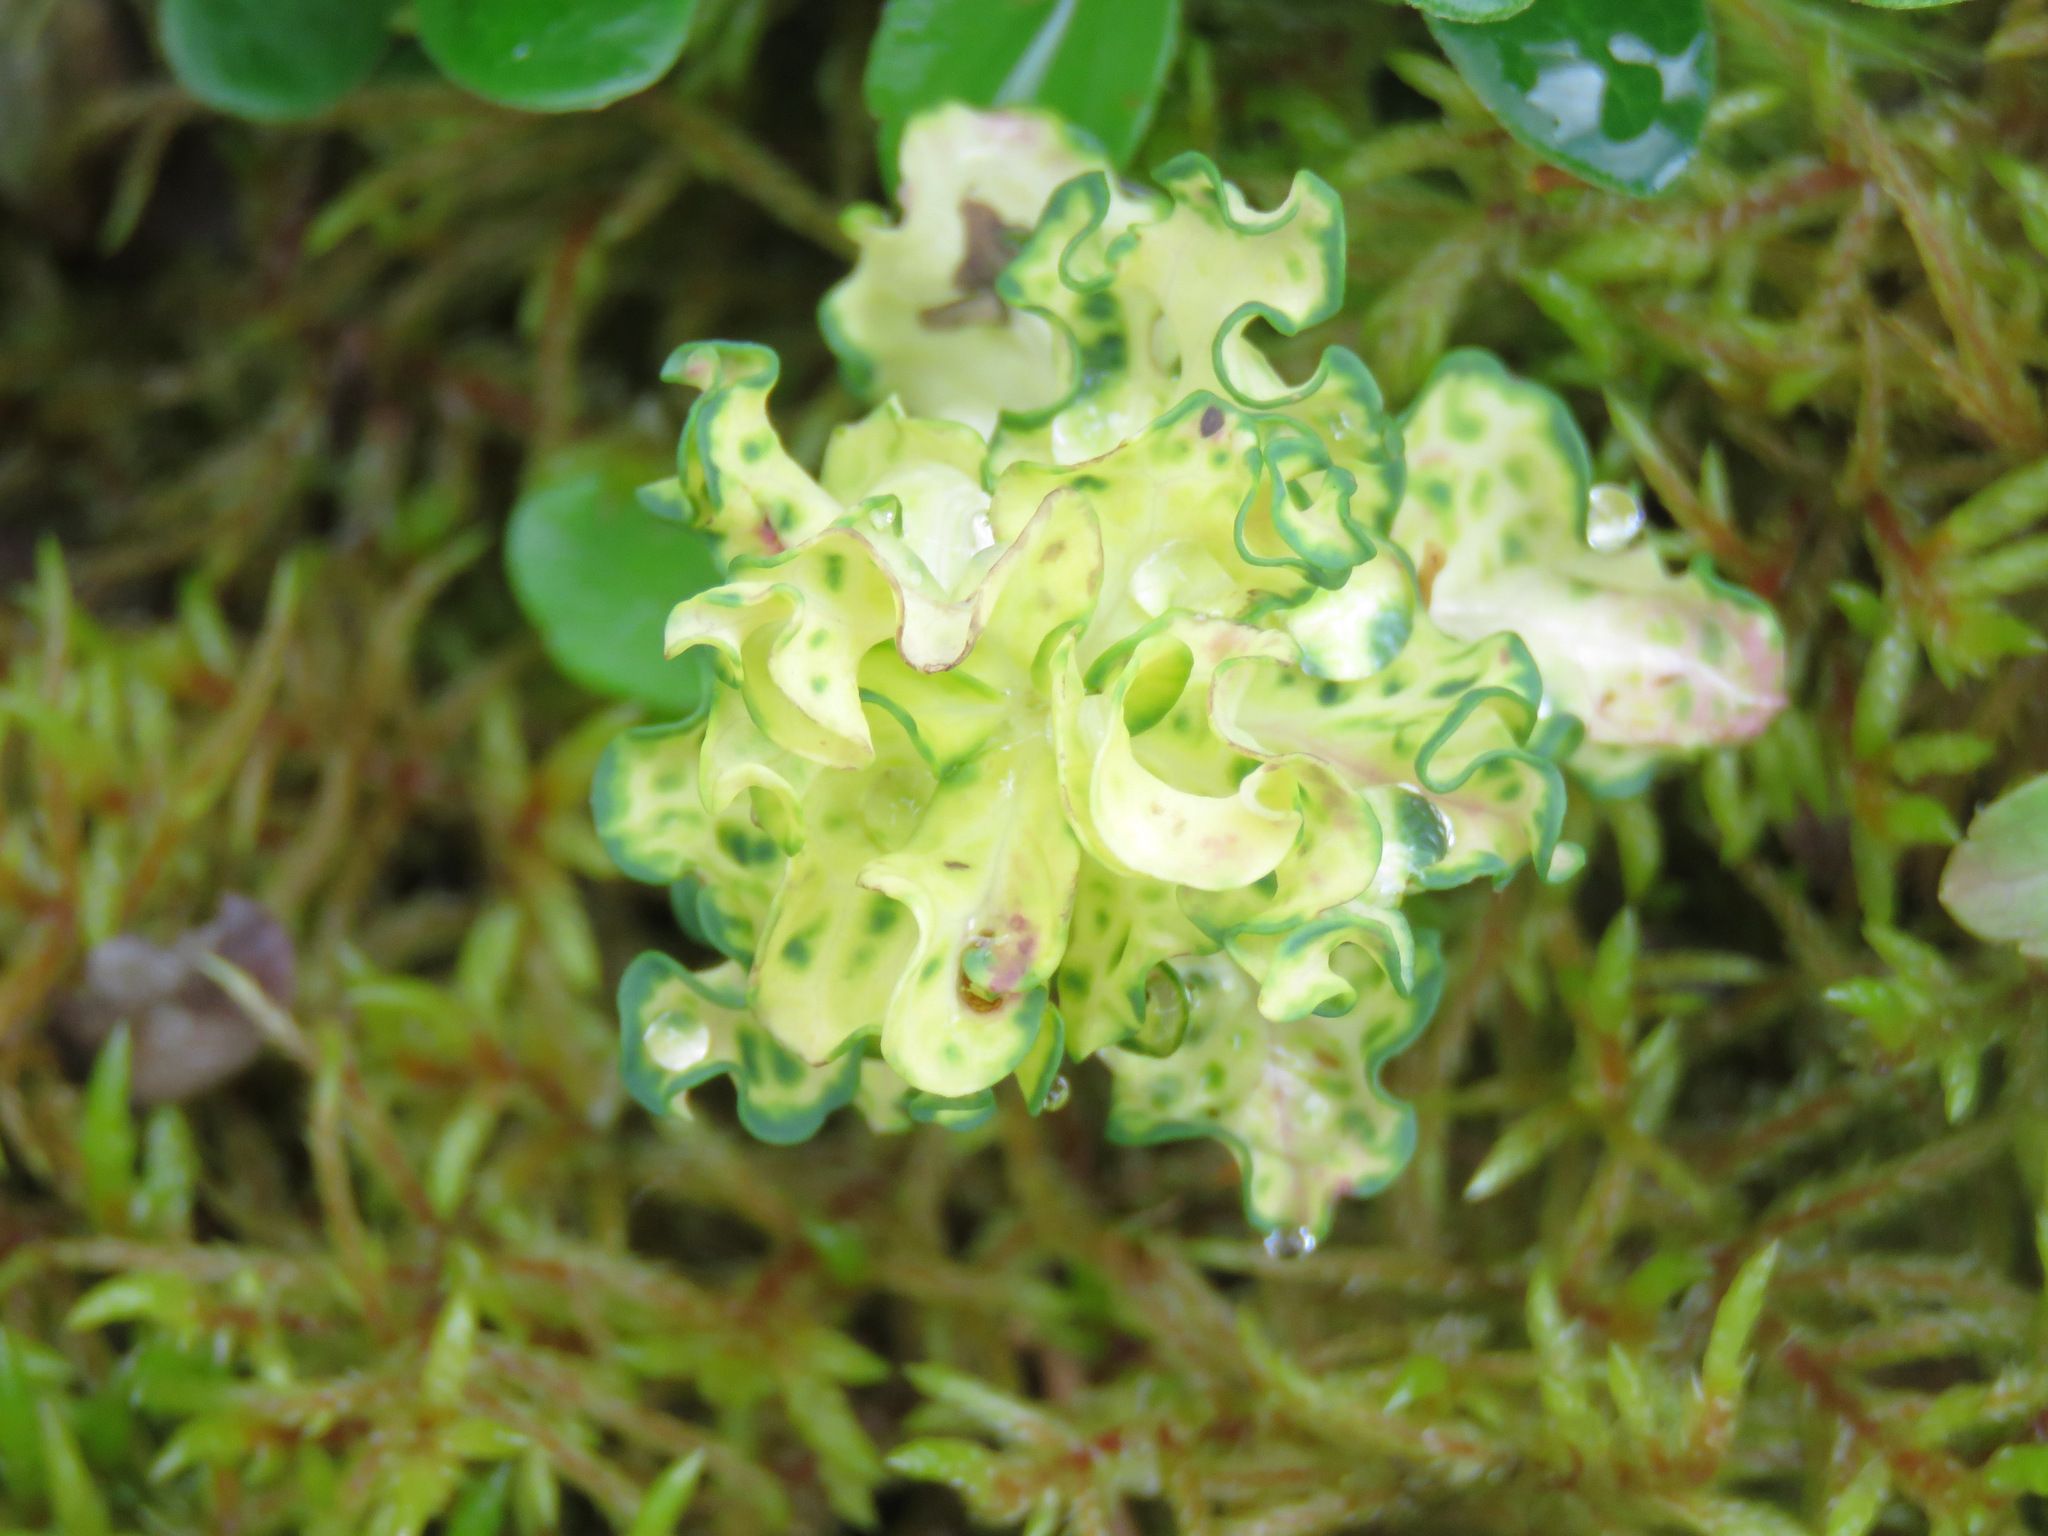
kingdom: Plantae
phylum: Tracheophyta
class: Magnoliopsida
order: Santalales
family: Comandraceae
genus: Geocaulon
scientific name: Geocaulon lividum
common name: Earthberry
